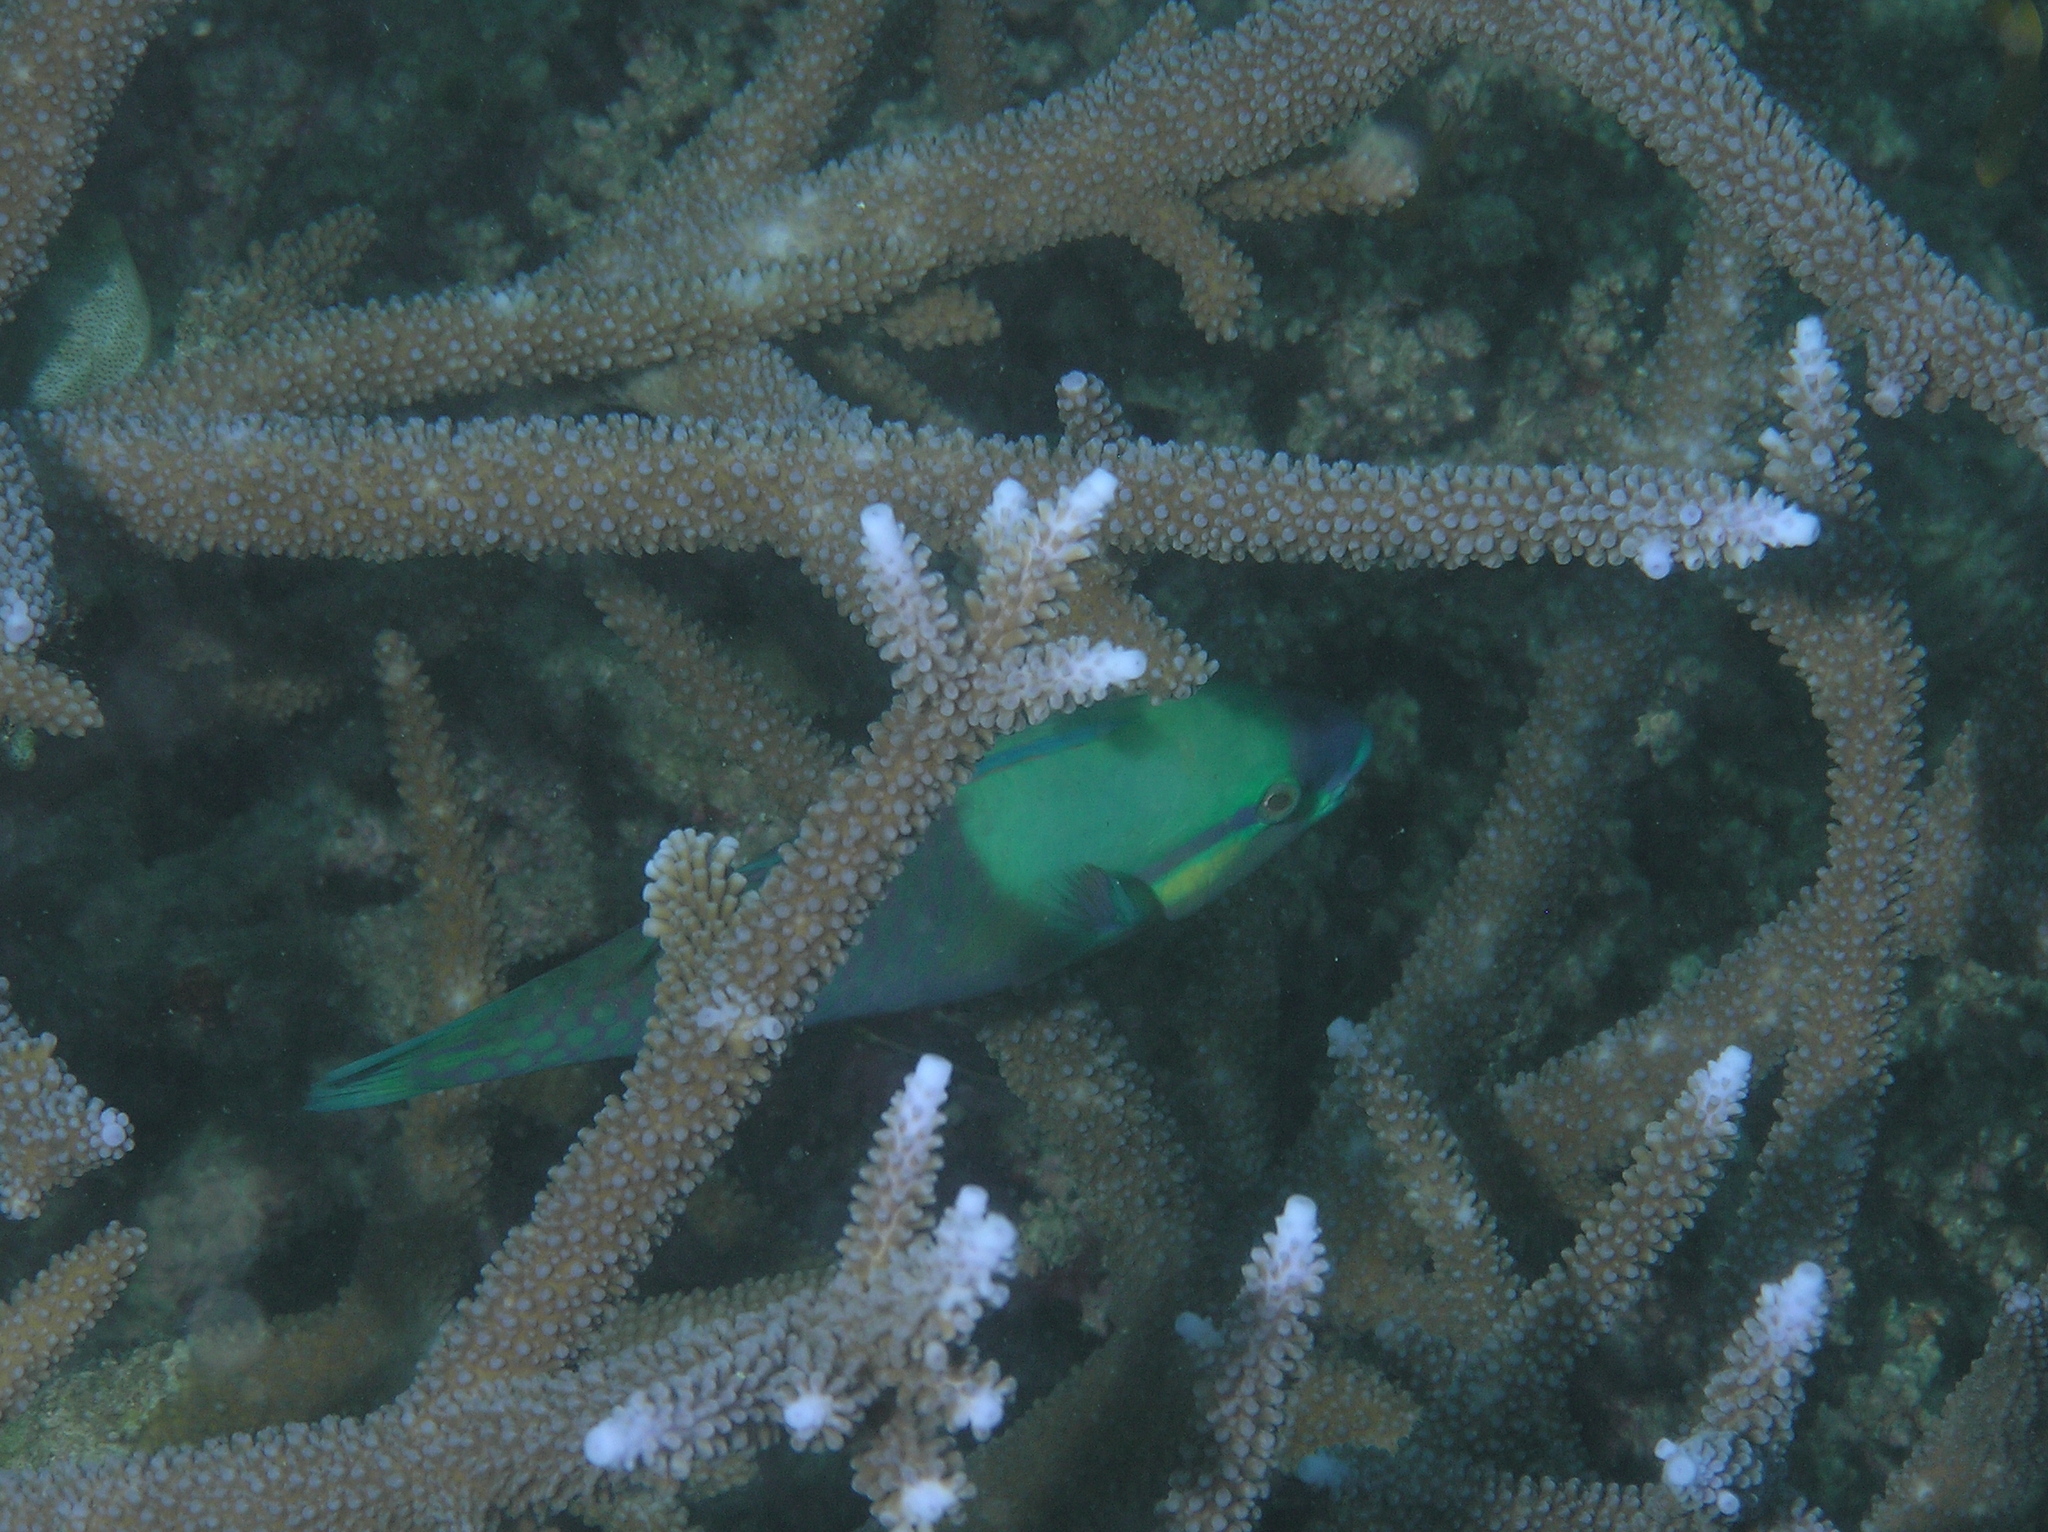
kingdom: Animalia
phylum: Chordata
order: Perciformes
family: Scaridae
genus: Scarus
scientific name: Scarus dimidiatus
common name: Yellowbarred parrotfish
